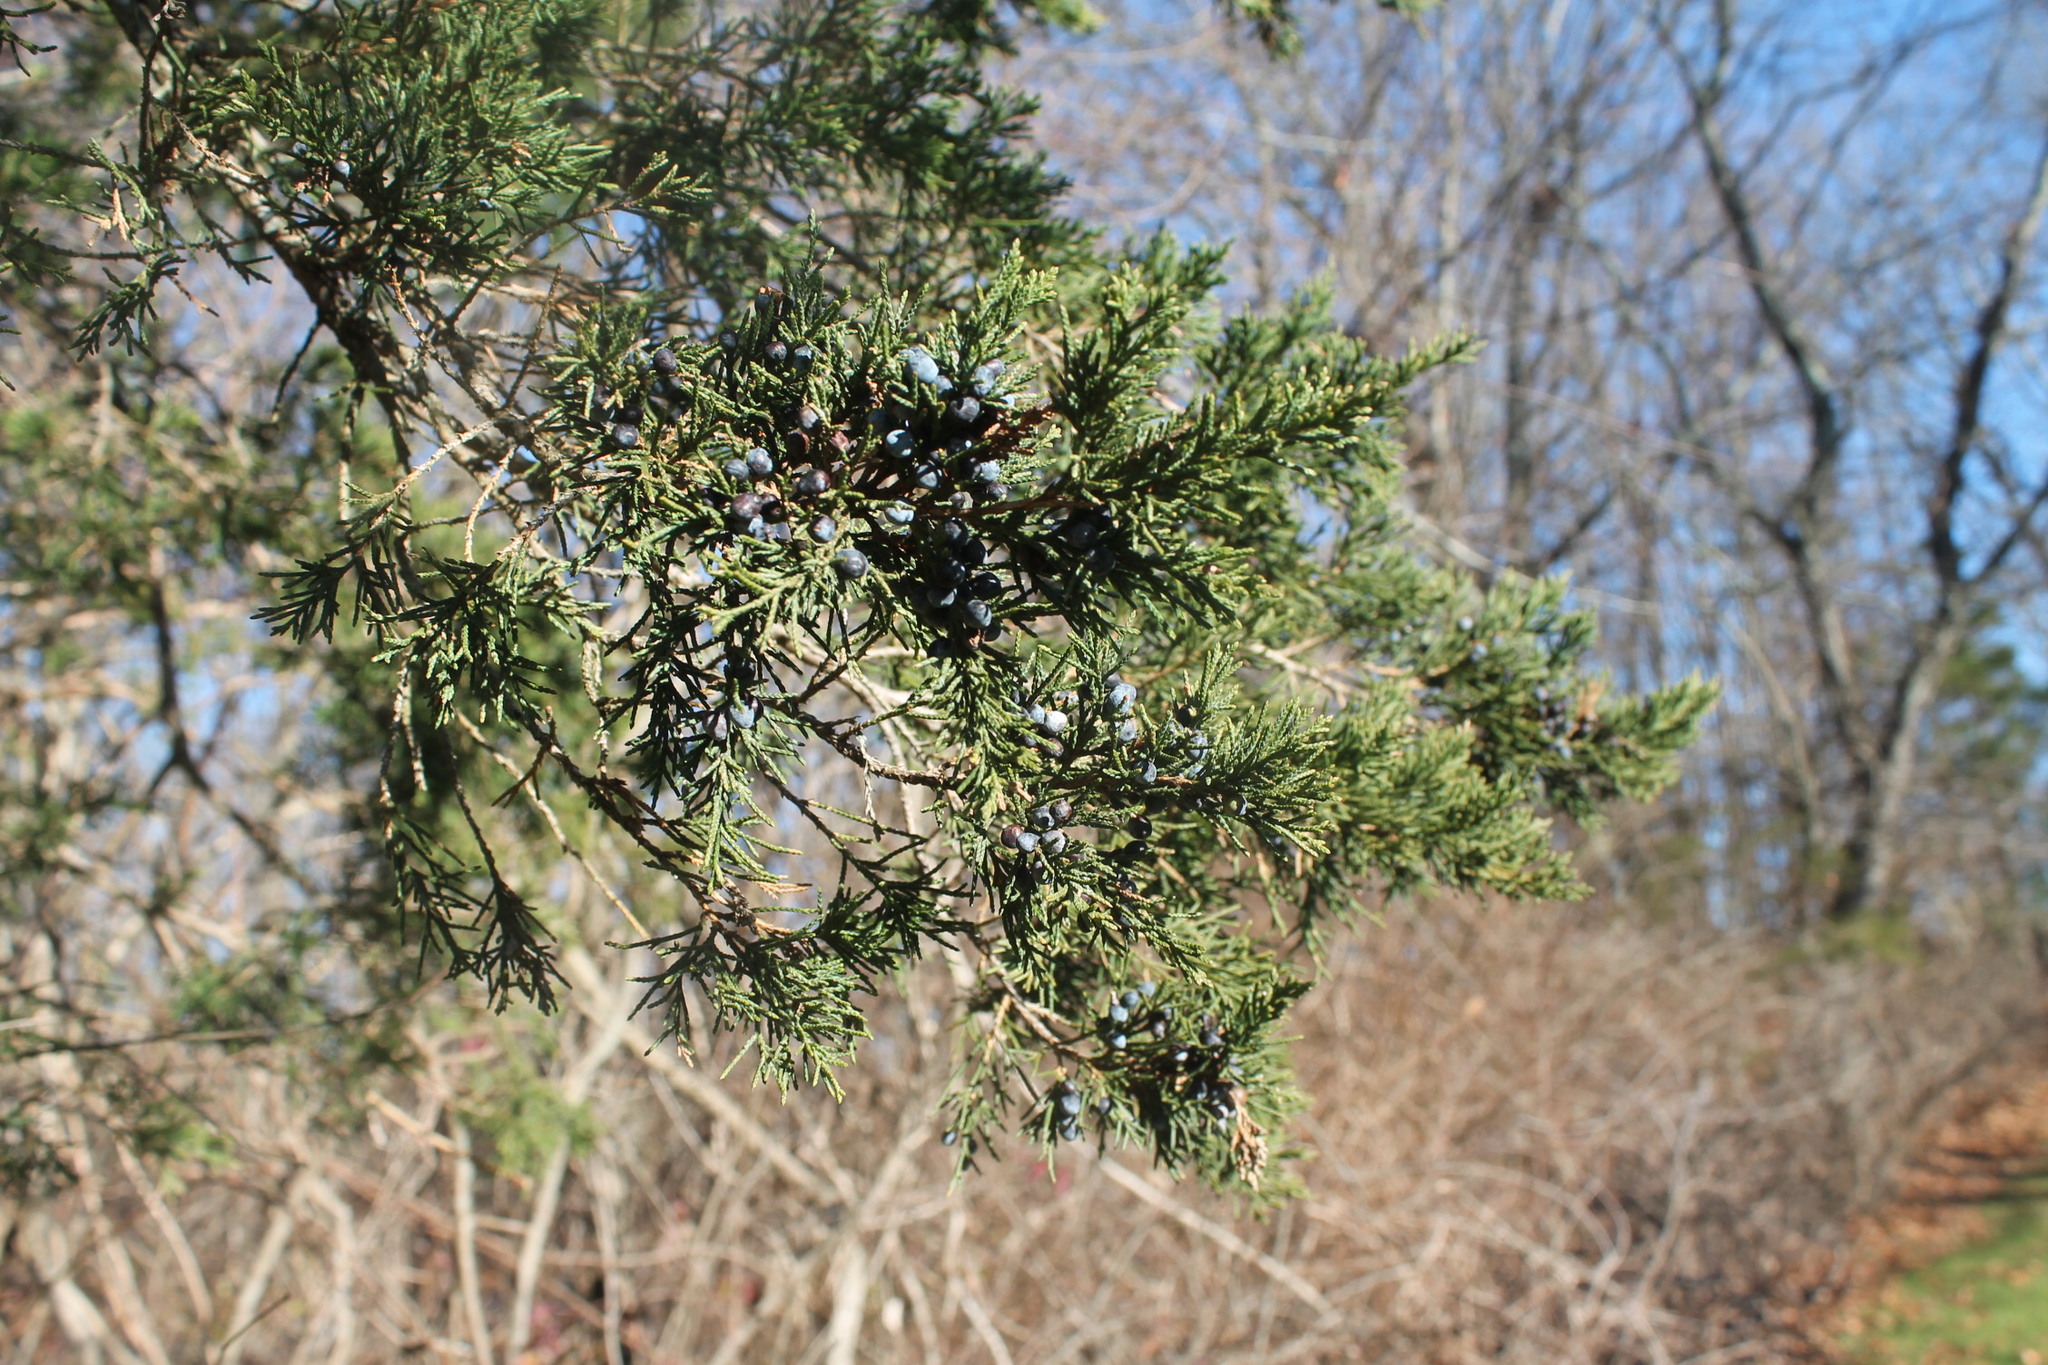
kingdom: Plantae
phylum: Tracheophyta
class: Pinopsida
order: Pinales
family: Cupressaceae
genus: Juniperus
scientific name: Juniperus virginiana
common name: Red juniper
